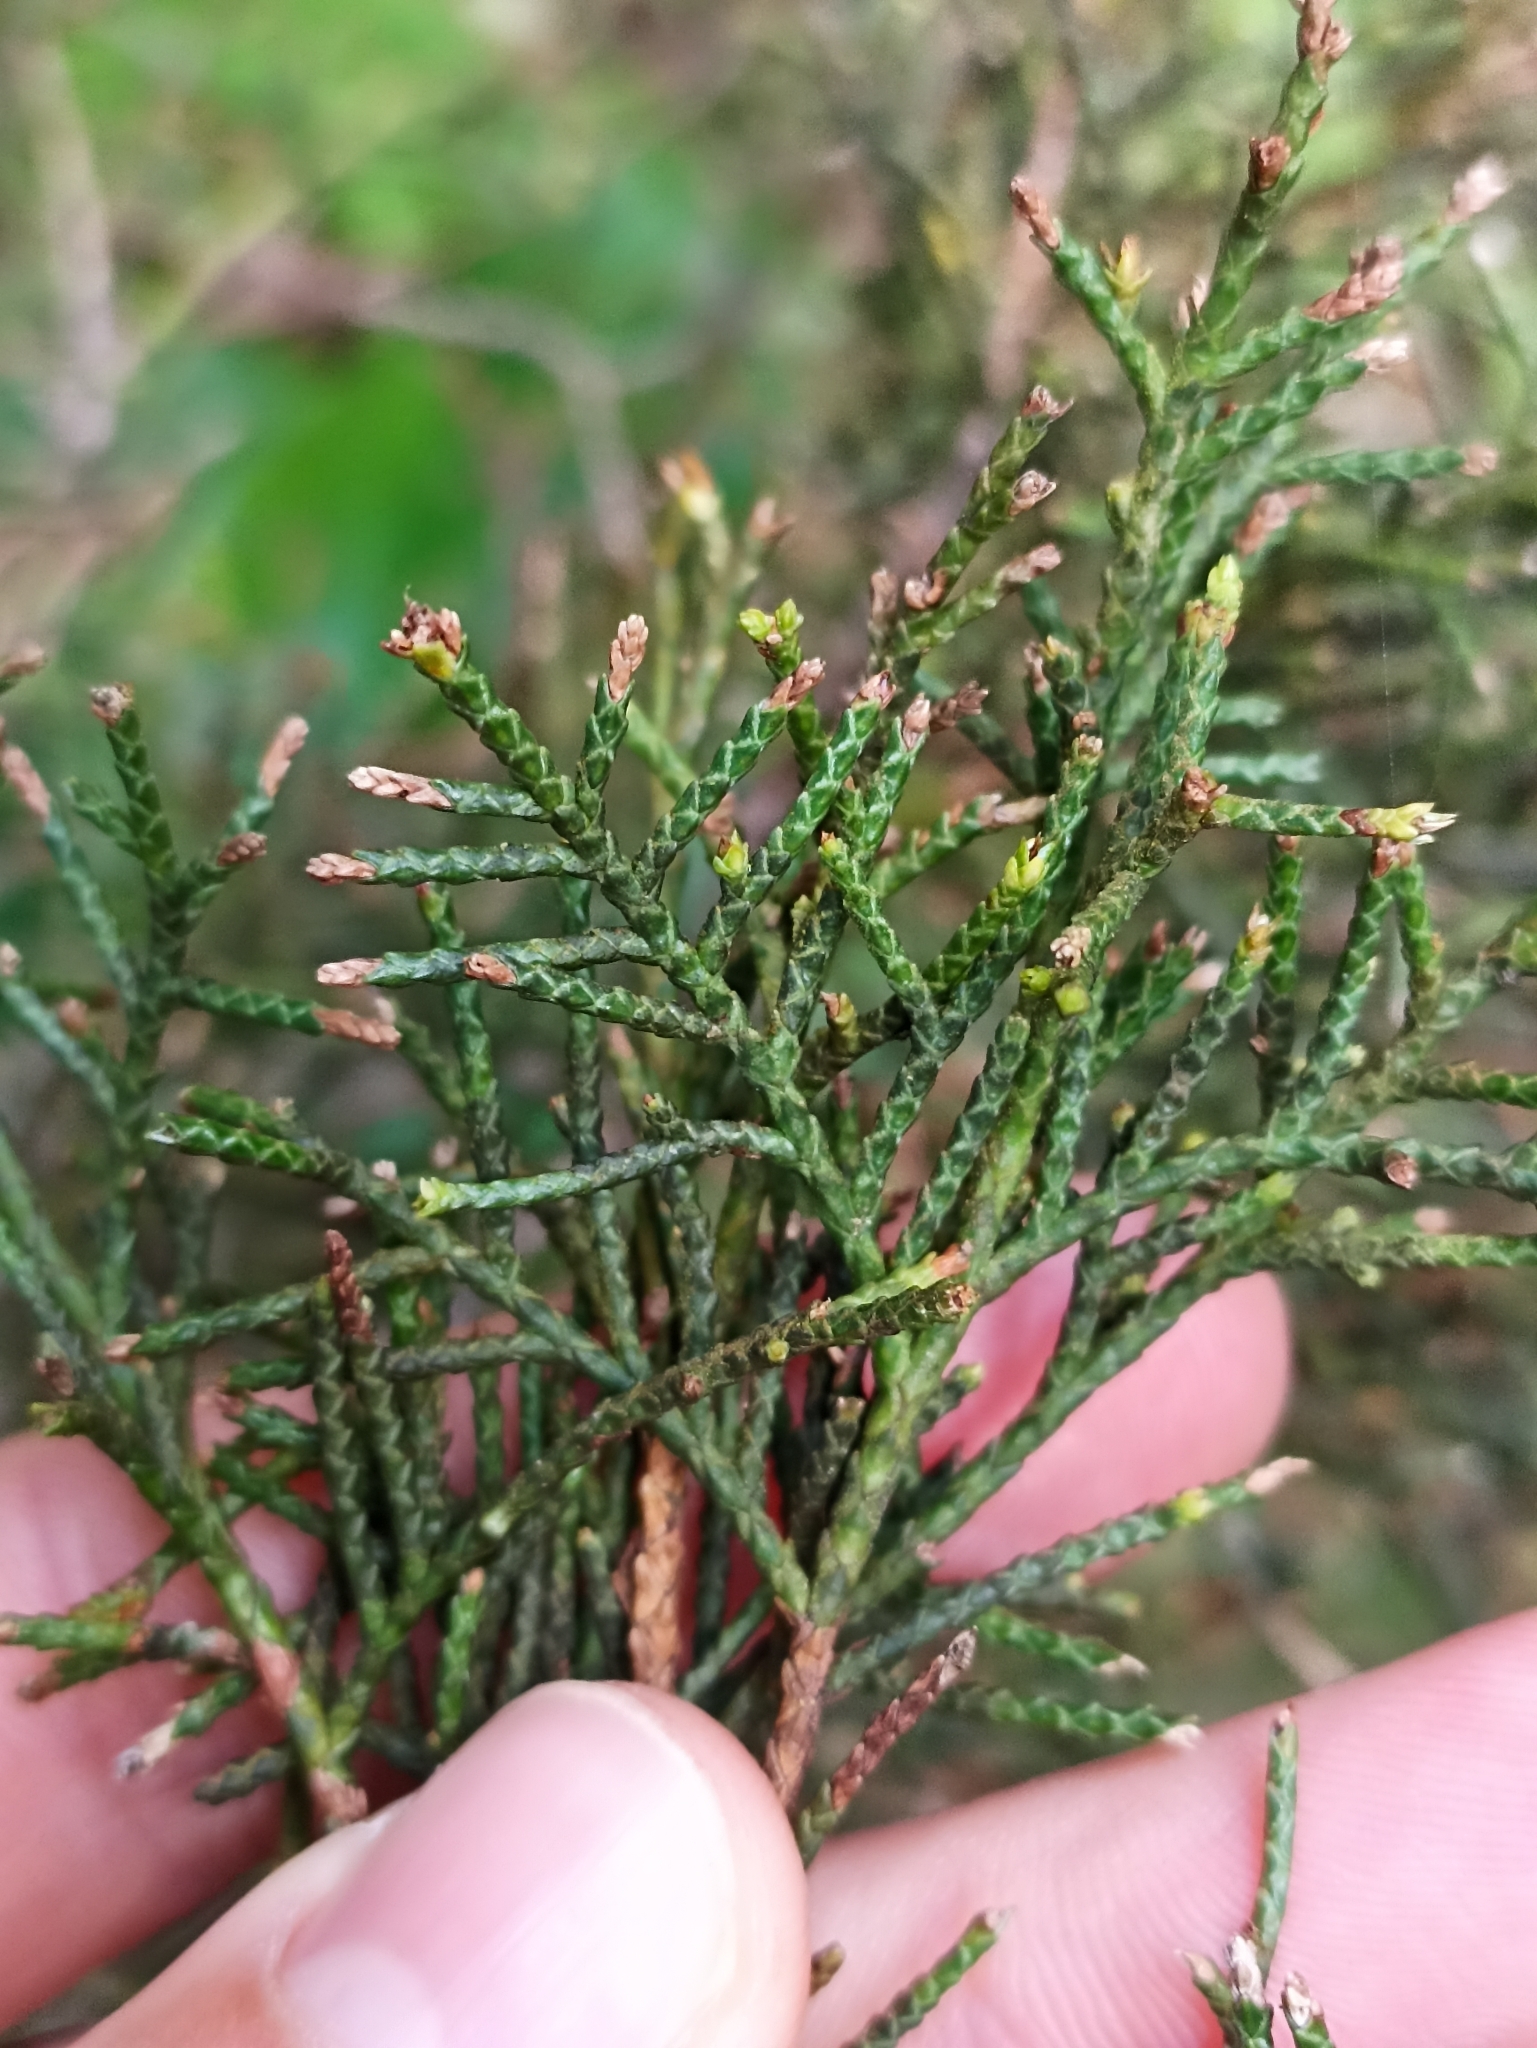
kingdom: Plantae
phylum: Tracheophyta
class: Pinopsida
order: Pinales
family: Cupressaceae
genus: Cupressus
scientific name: Cupressus macrocarpa
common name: Monterey cypress
